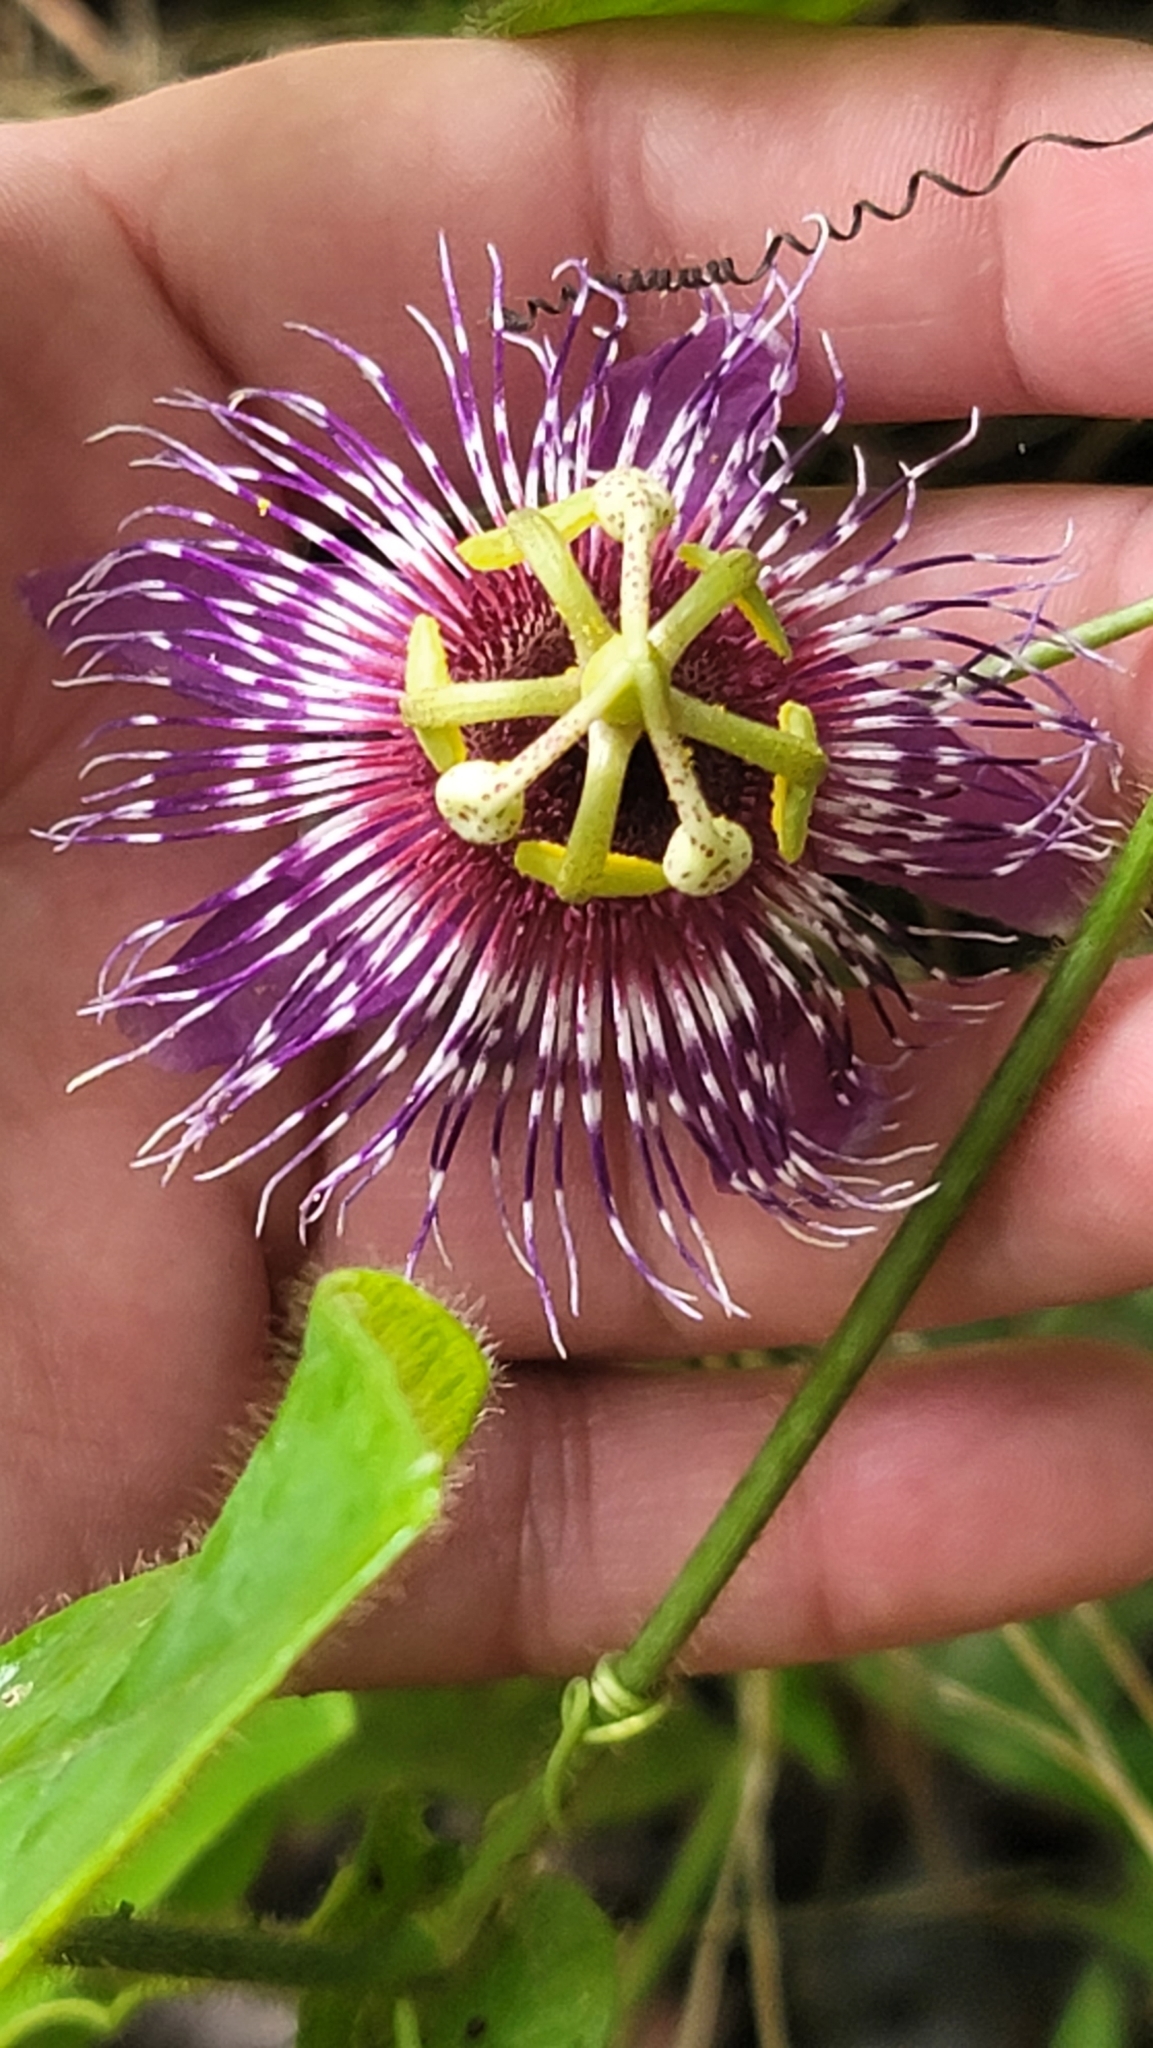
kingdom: Plantae
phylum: Tracheophyta
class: Magnoliopsida
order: Malpighiales
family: Passifloraceae
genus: Passiflora
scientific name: Passiflora menispermifolia
